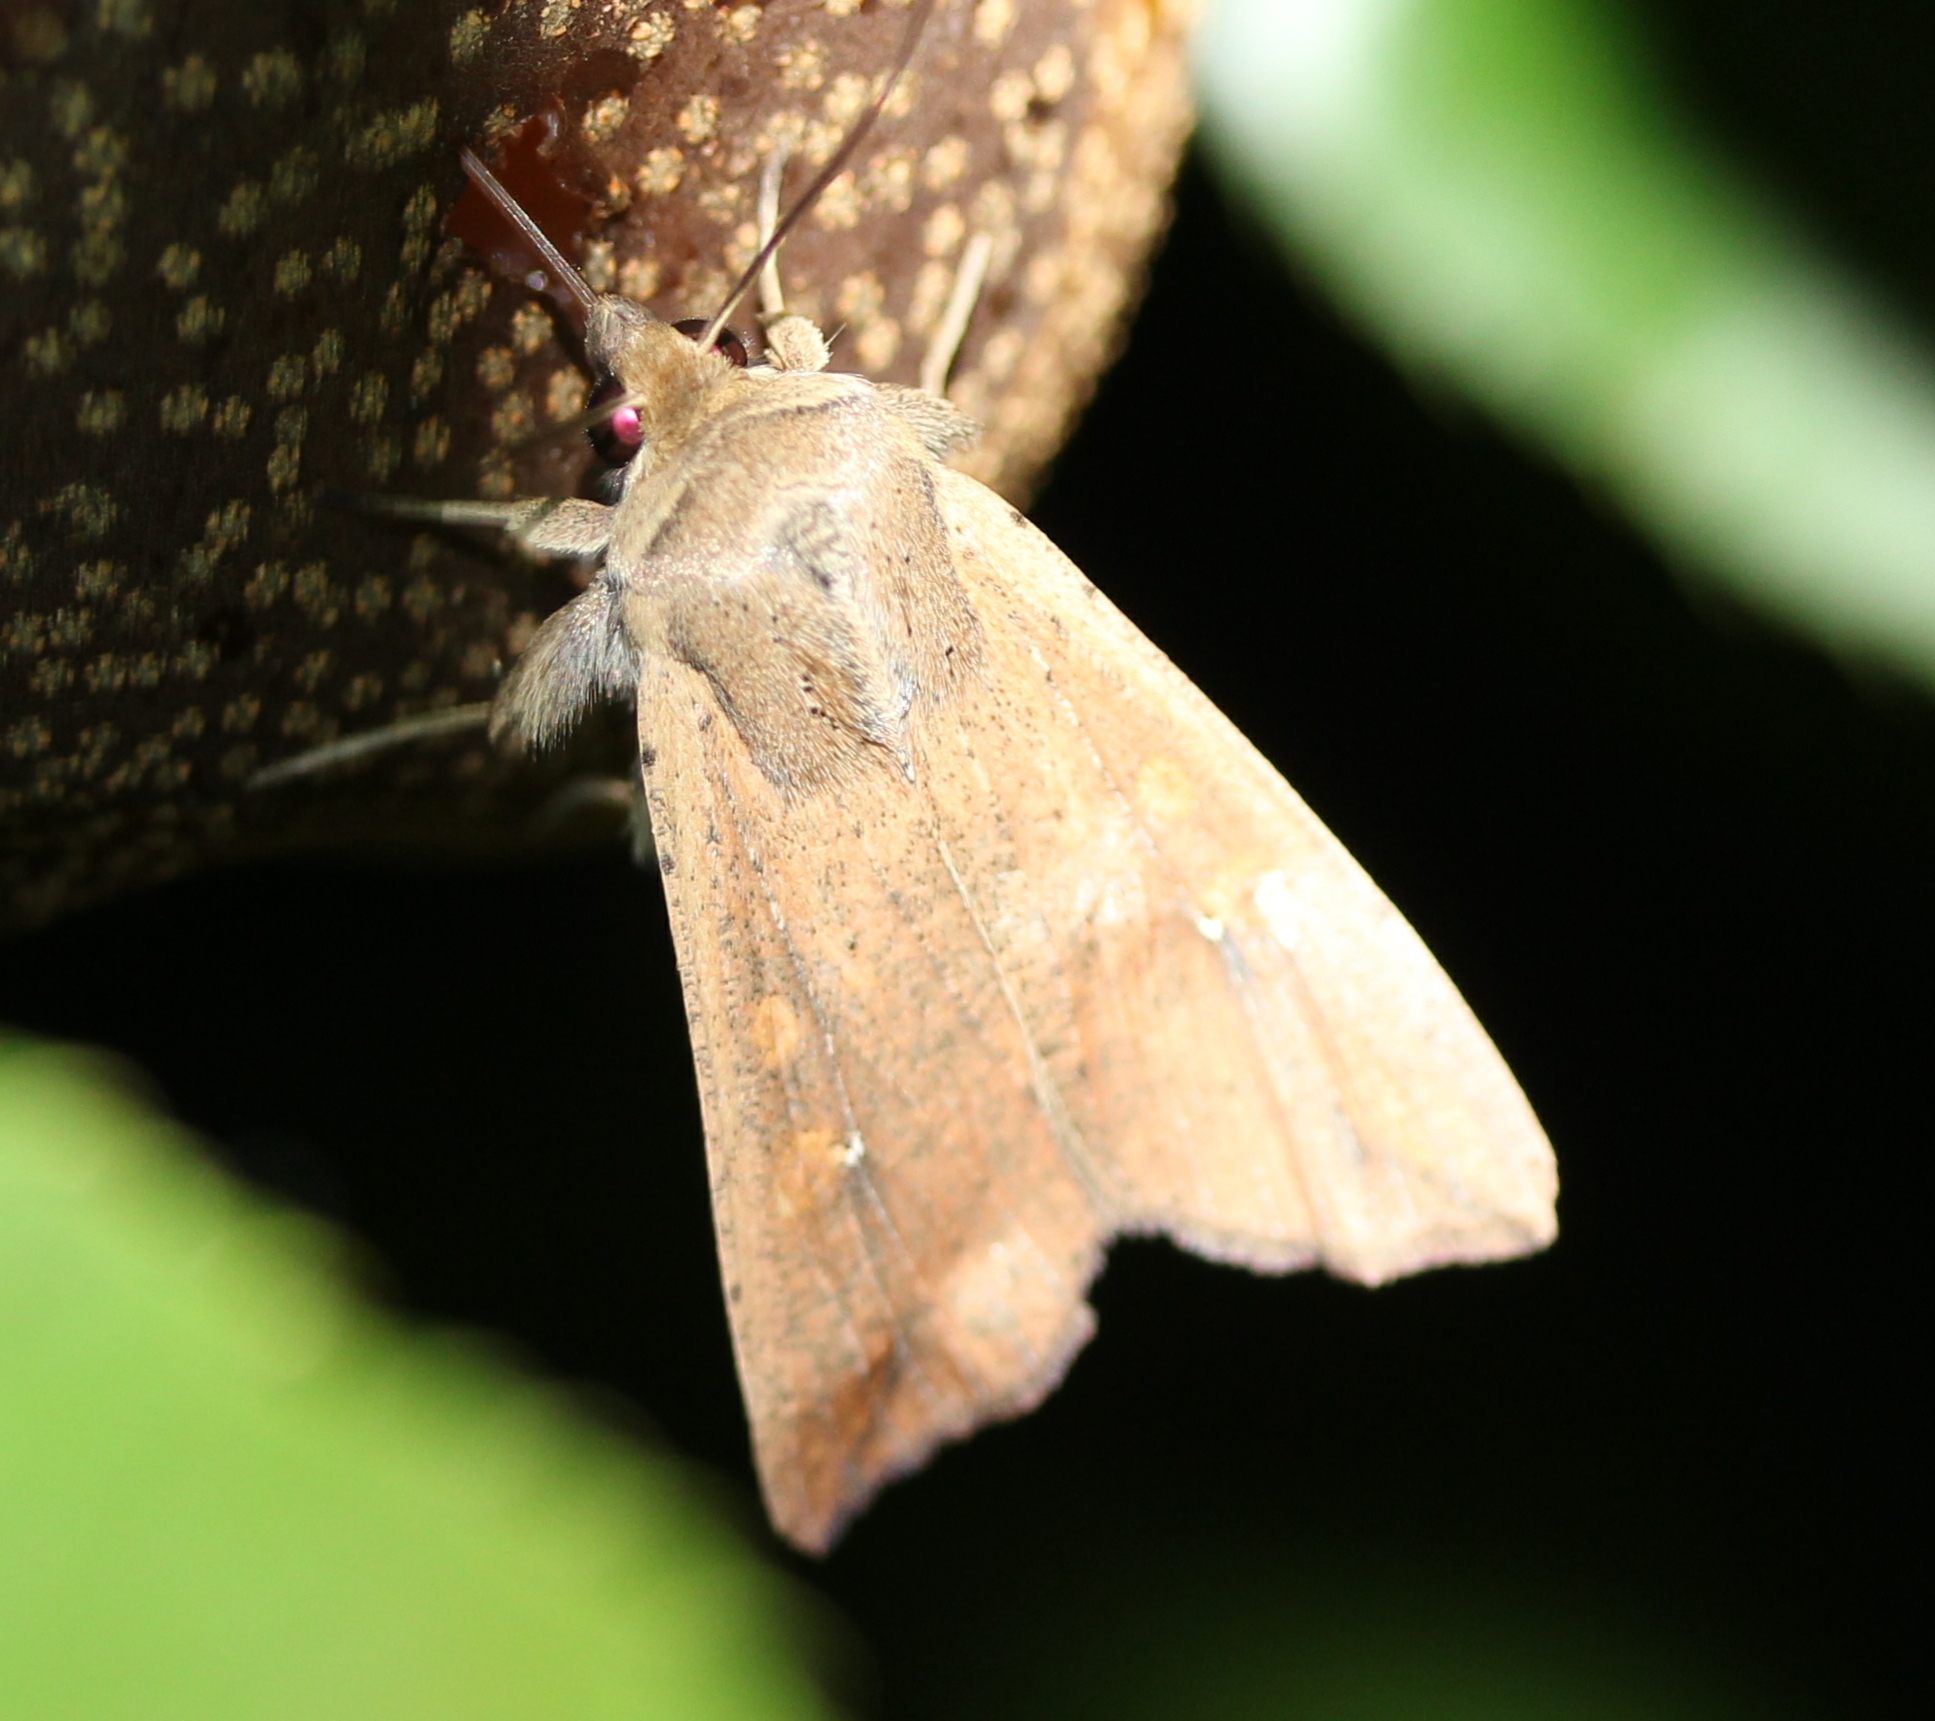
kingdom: Animalia
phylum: Arthropoda
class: Insecta
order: Lepidoptera
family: Noctuidae
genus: Mythimna
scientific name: Mythimna unipuncta
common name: White-speck
